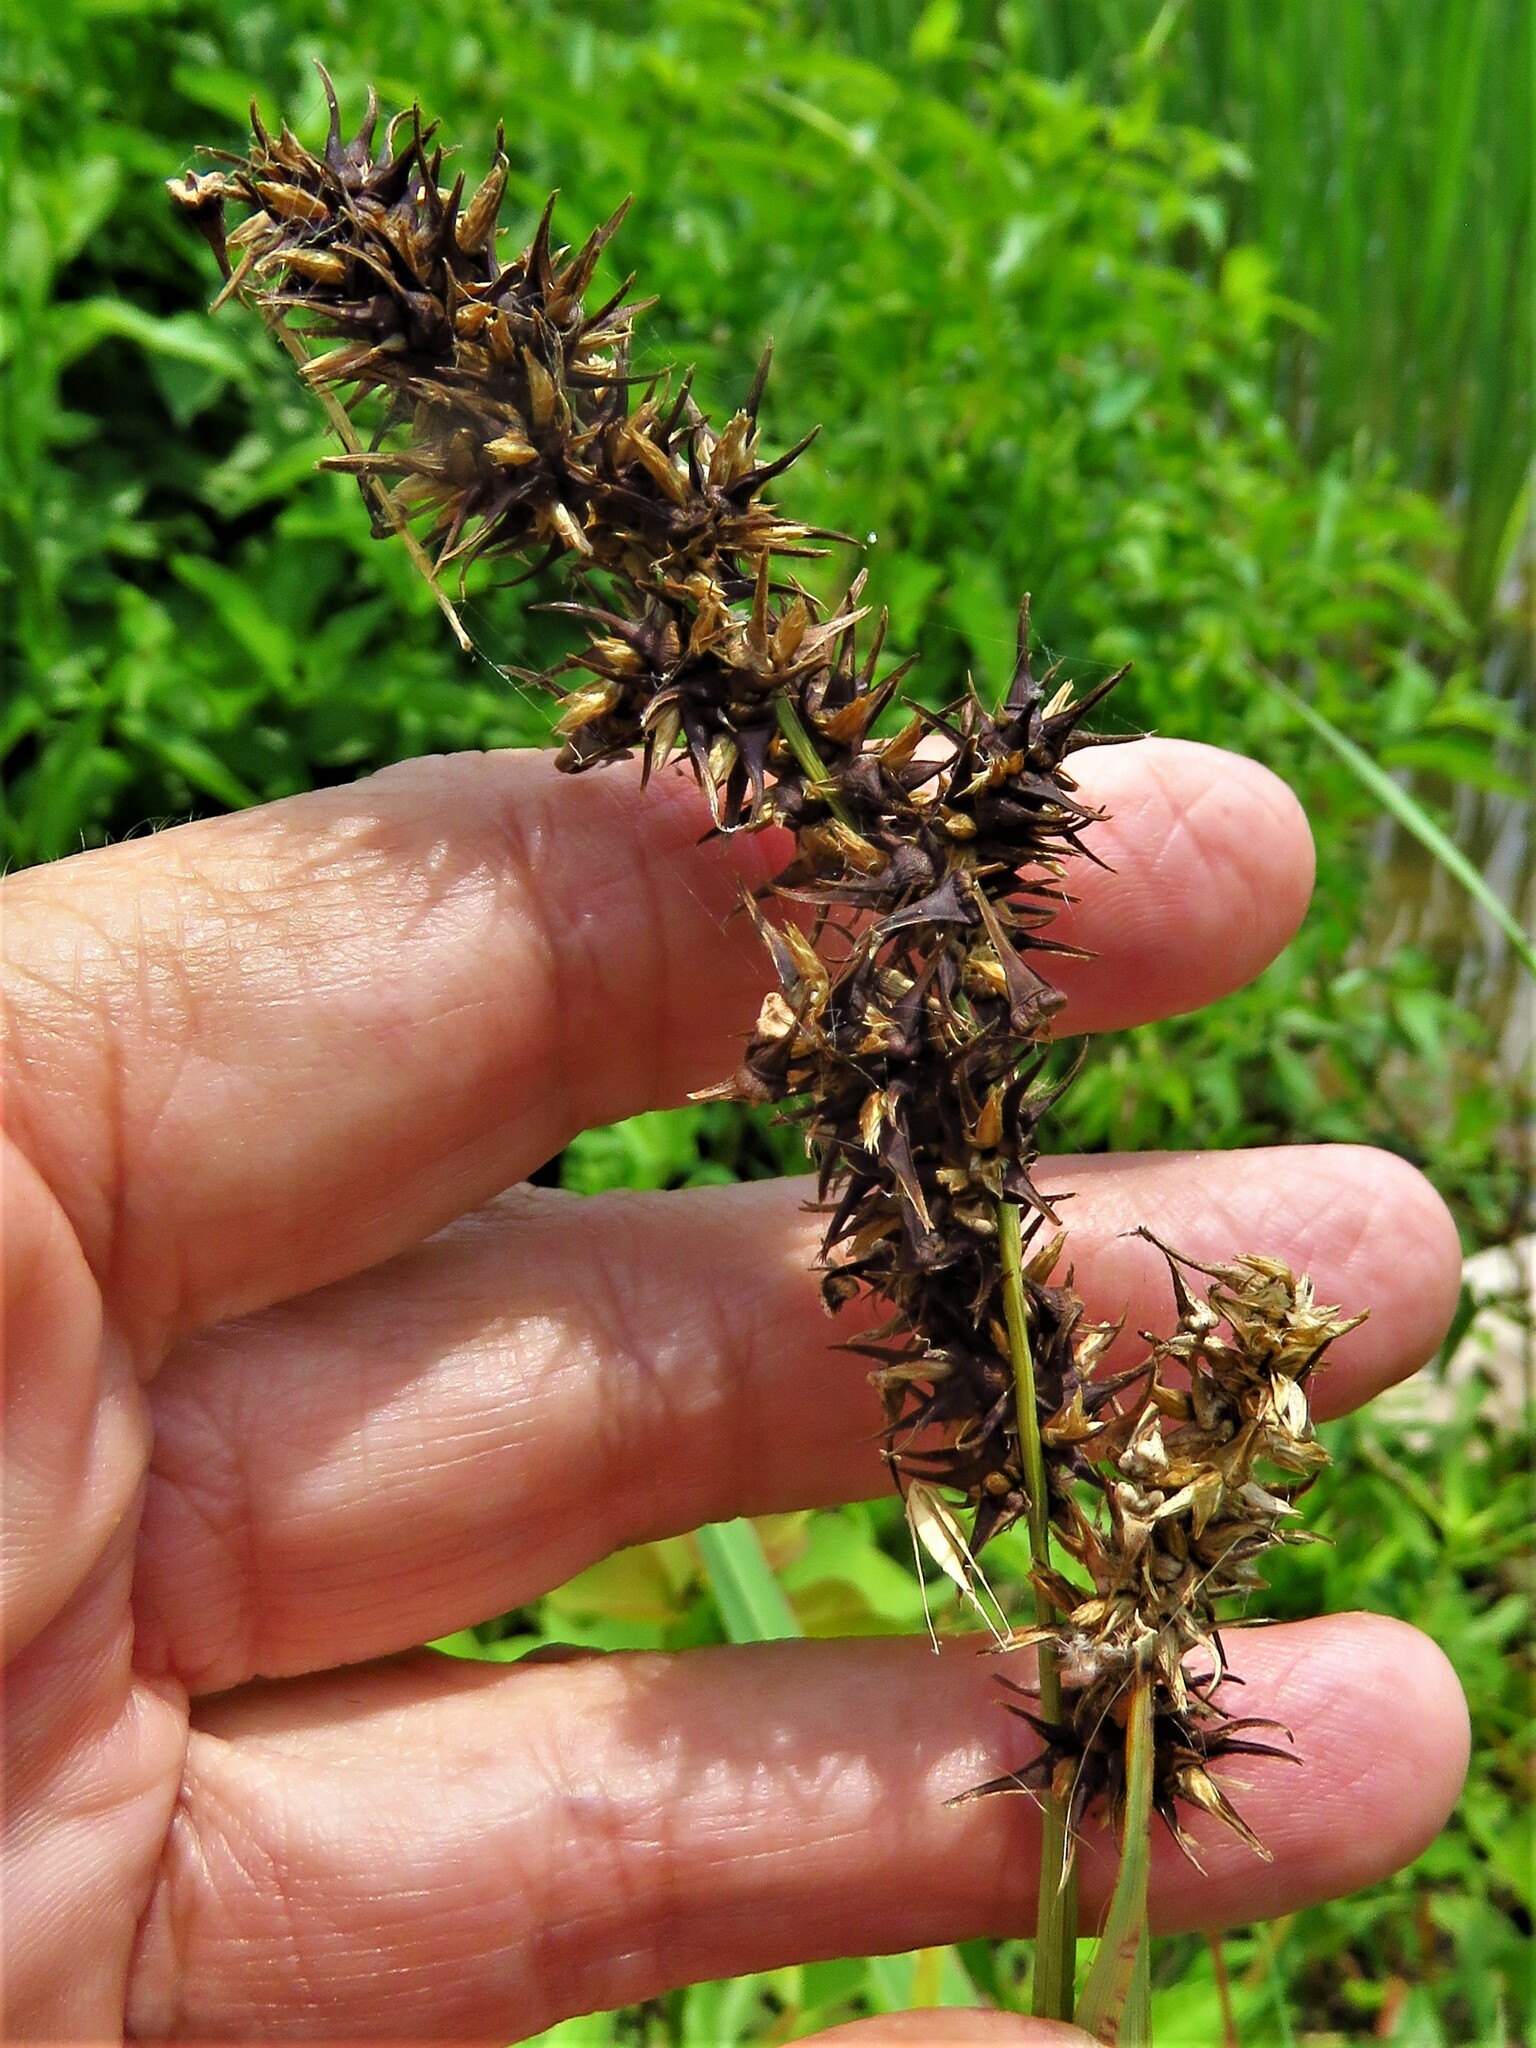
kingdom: Plantae
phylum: Tracheophyta
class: Liliopsida
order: Poales
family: Cyperaceae
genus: Carex
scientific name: Carex crus-corvi
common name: Crow-spur sedge
